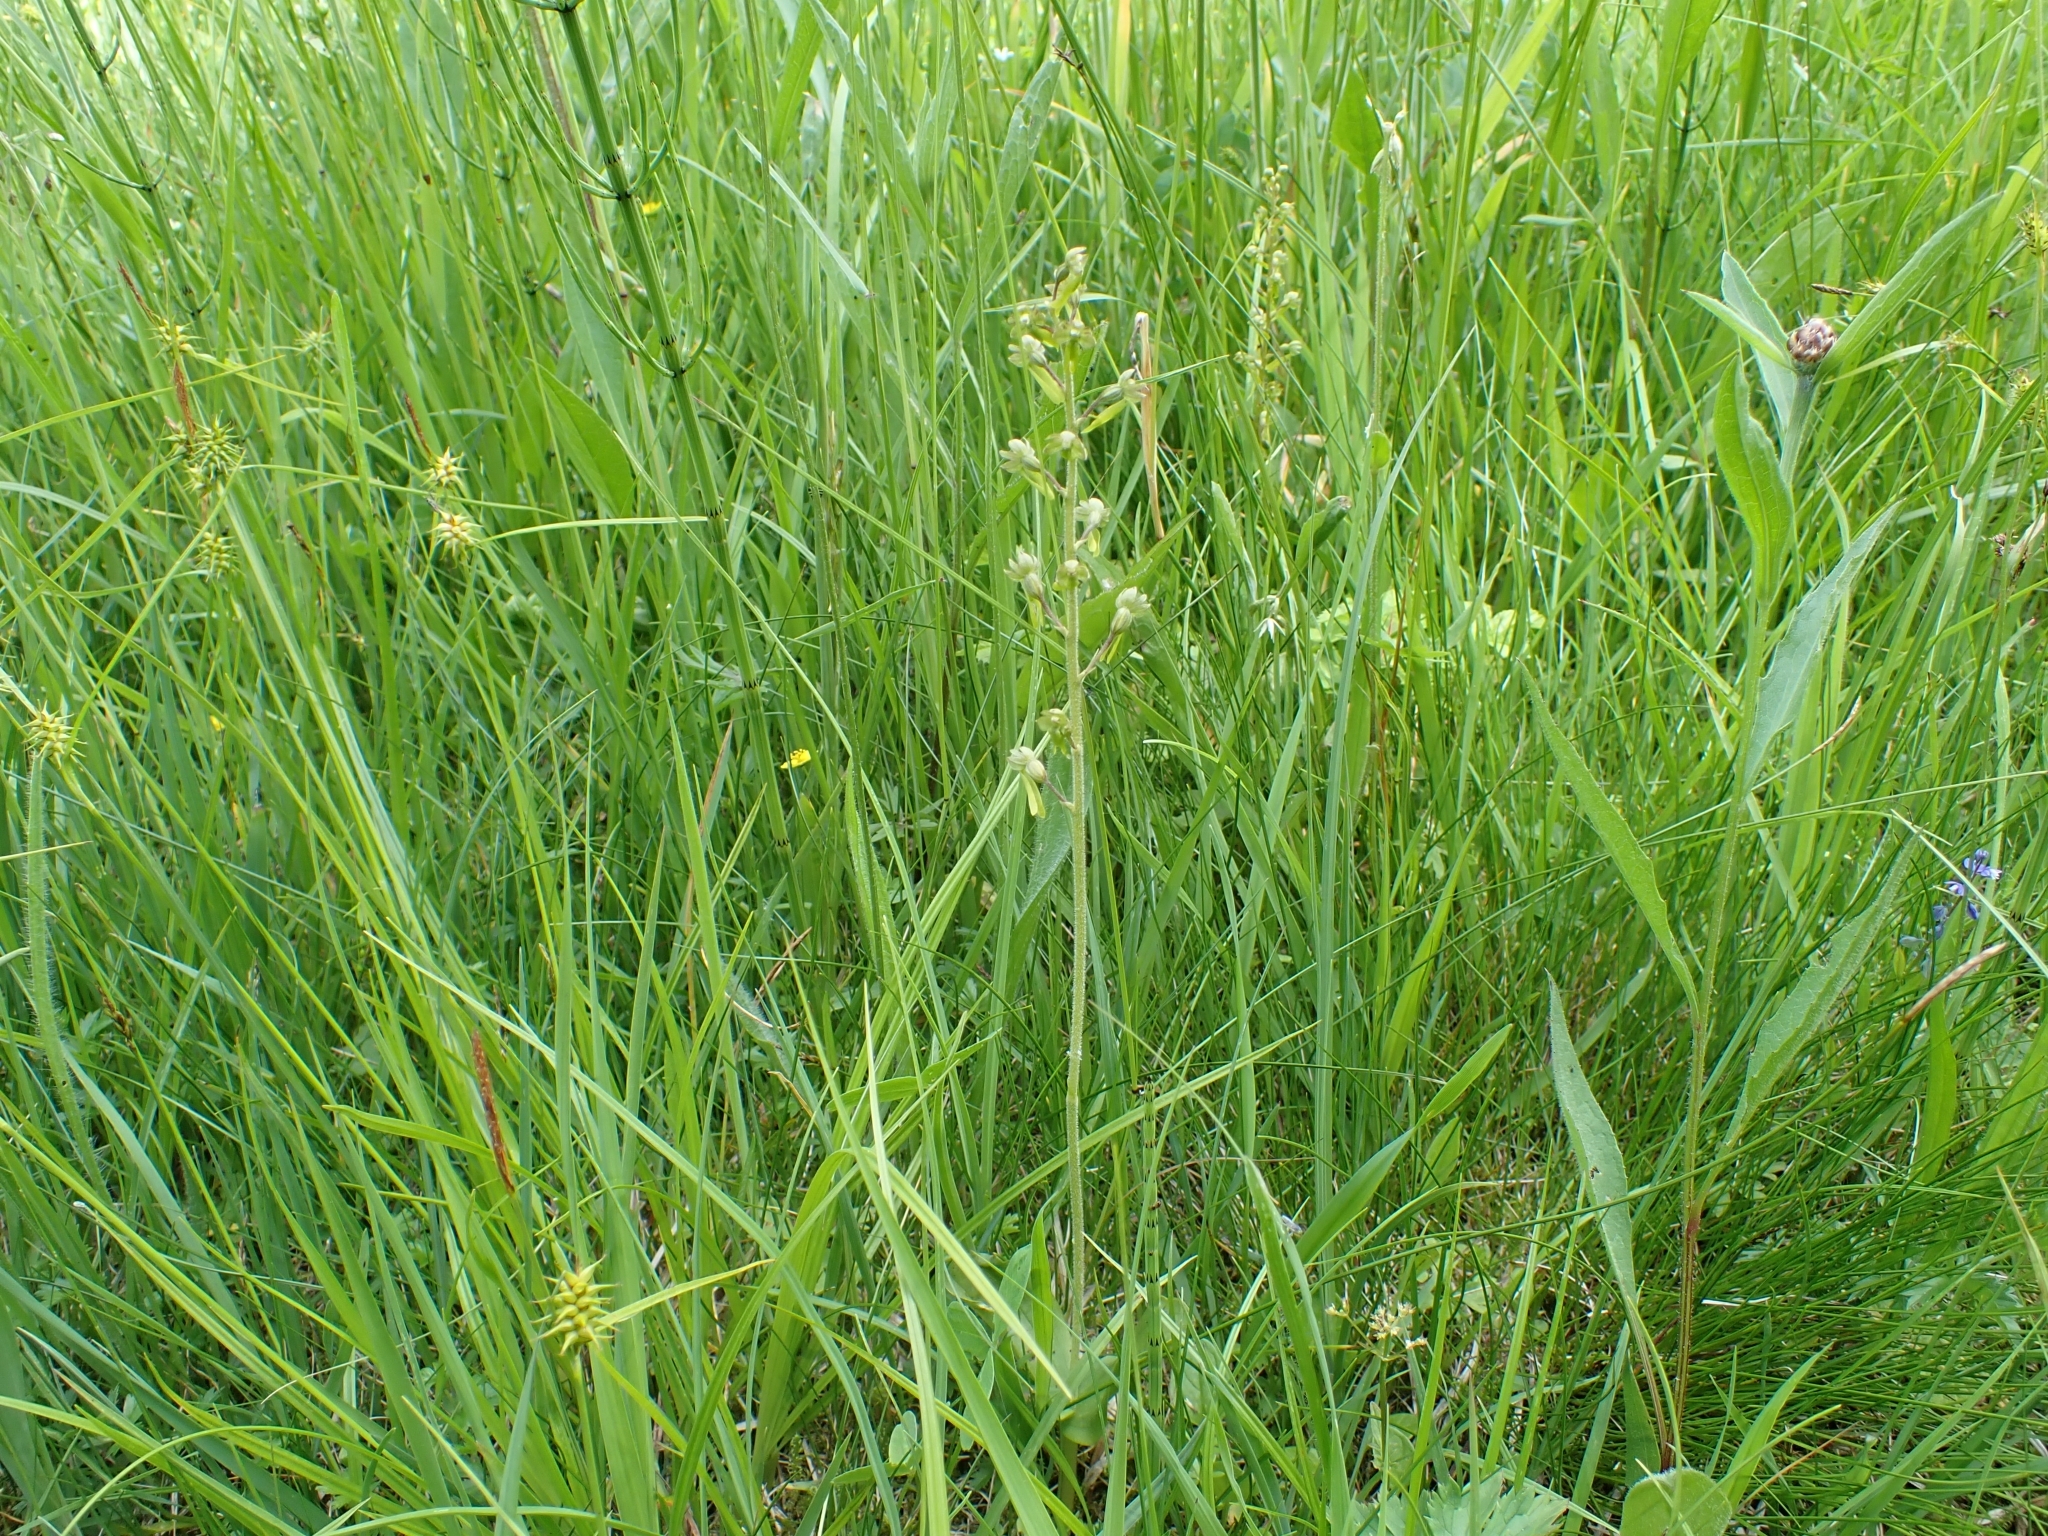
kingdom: Plantae
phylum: Tracheophyta
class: Liliopsida
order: Asparagales
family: Orchidaceae
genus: Neottia
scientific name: Neottia ovata
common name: Common twayblade
